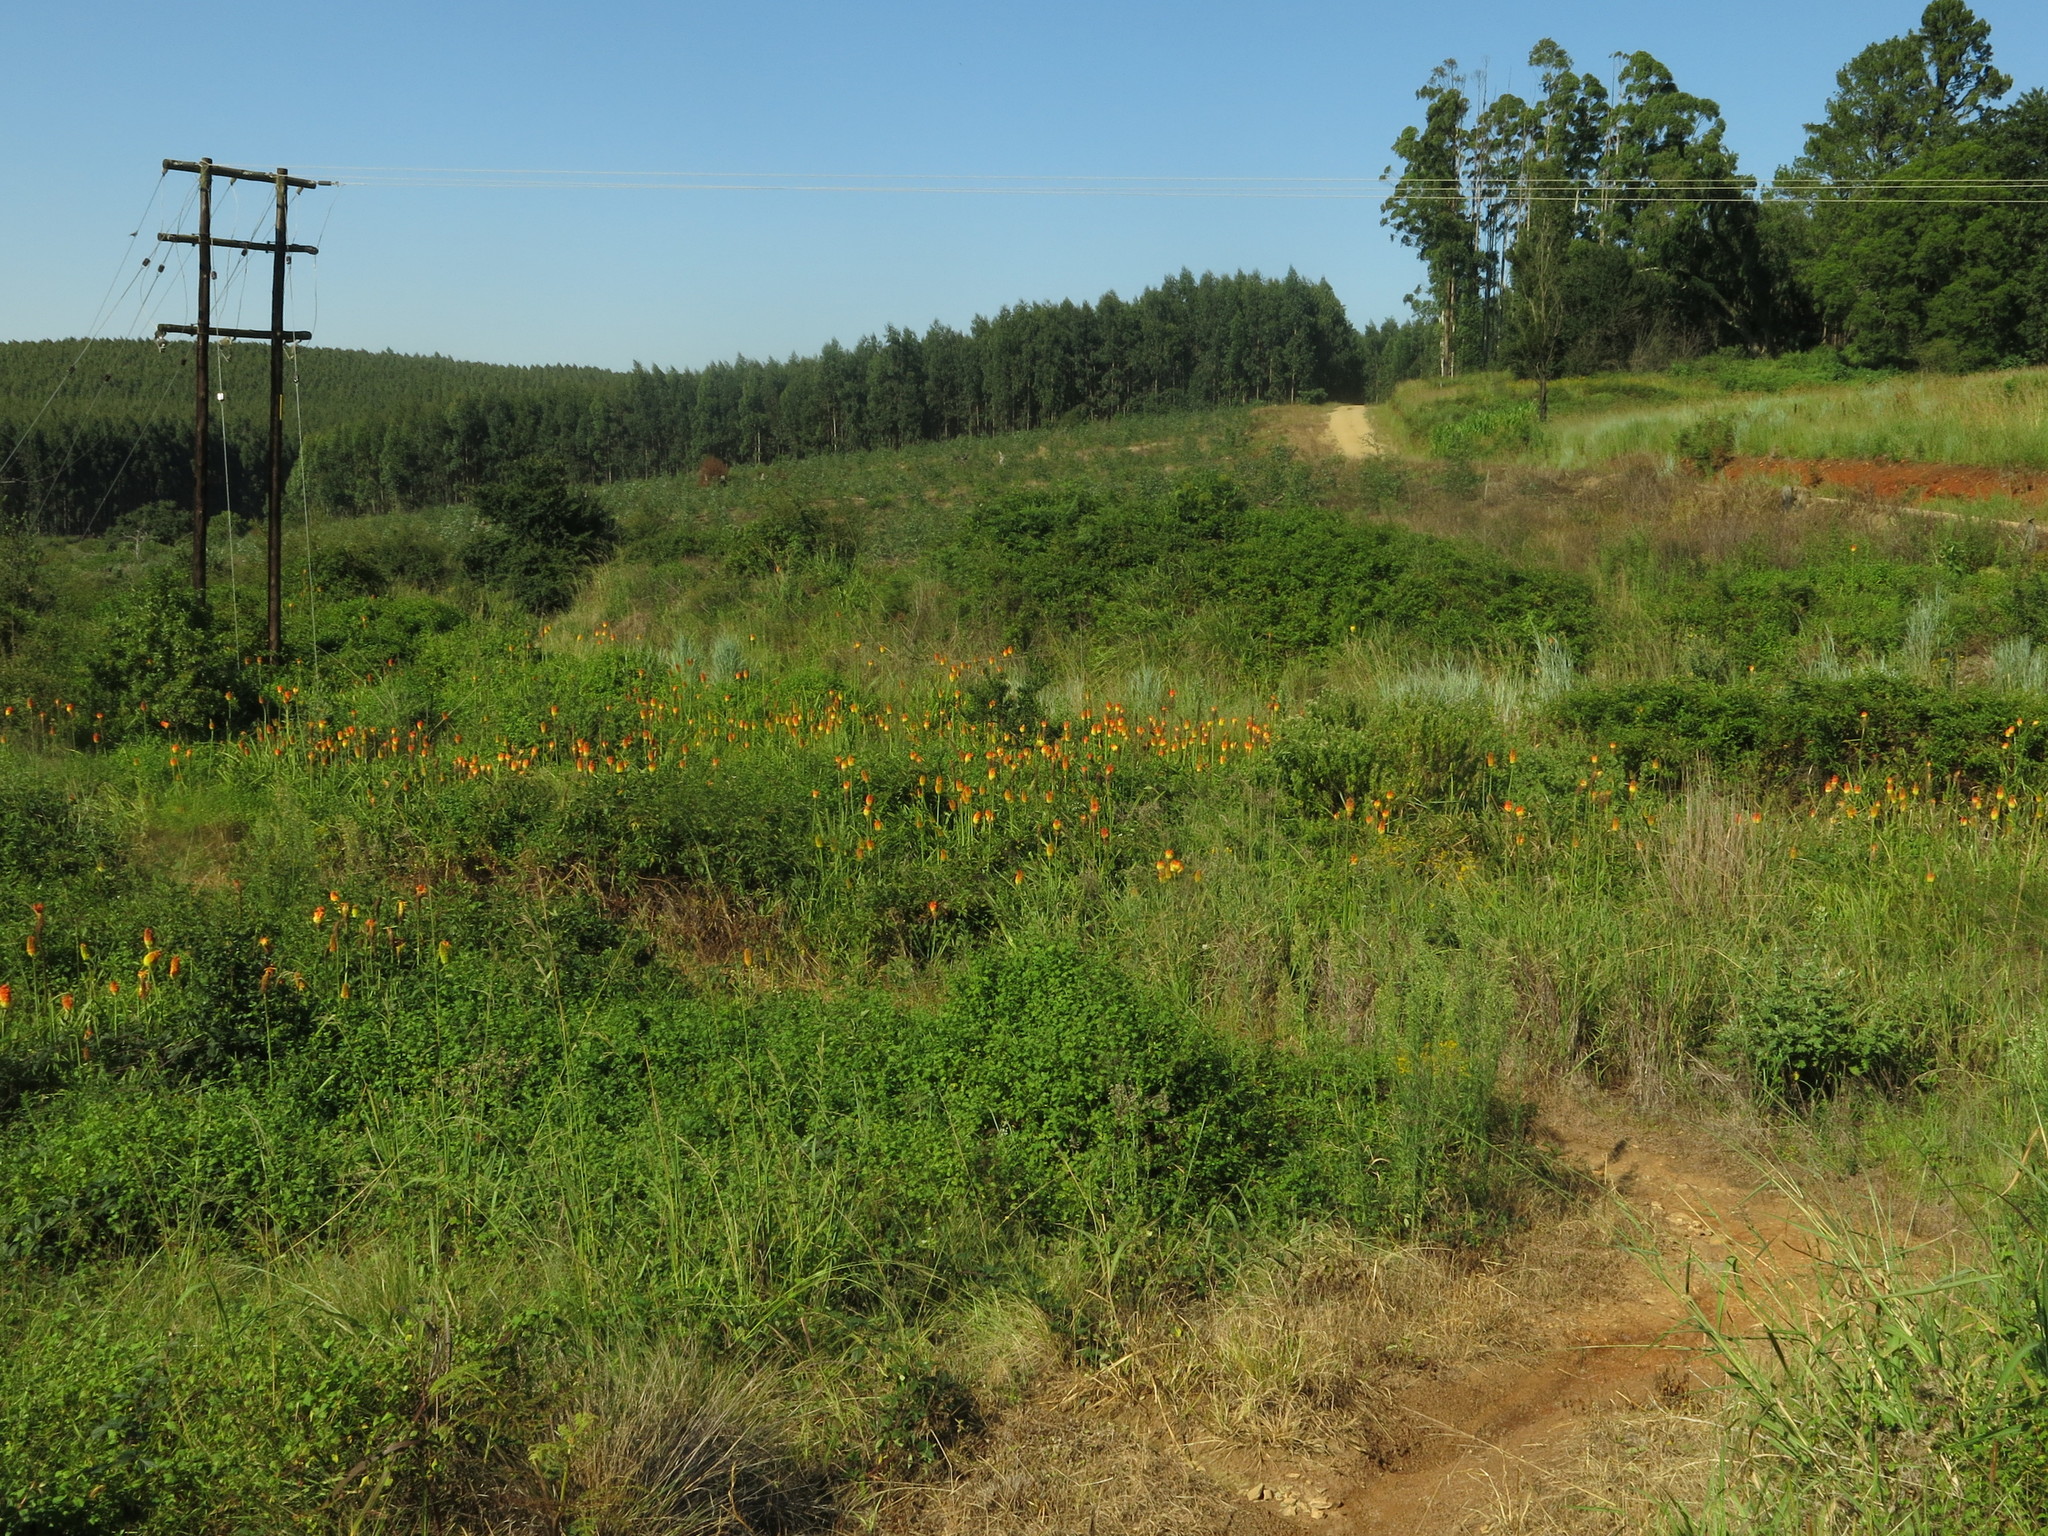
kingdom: Plantae
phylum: Tracheophyta
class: Liliopsida
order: Asparagales
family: Asphodelaceae
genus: Kniphofia
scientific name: Kniphofia tysonii
